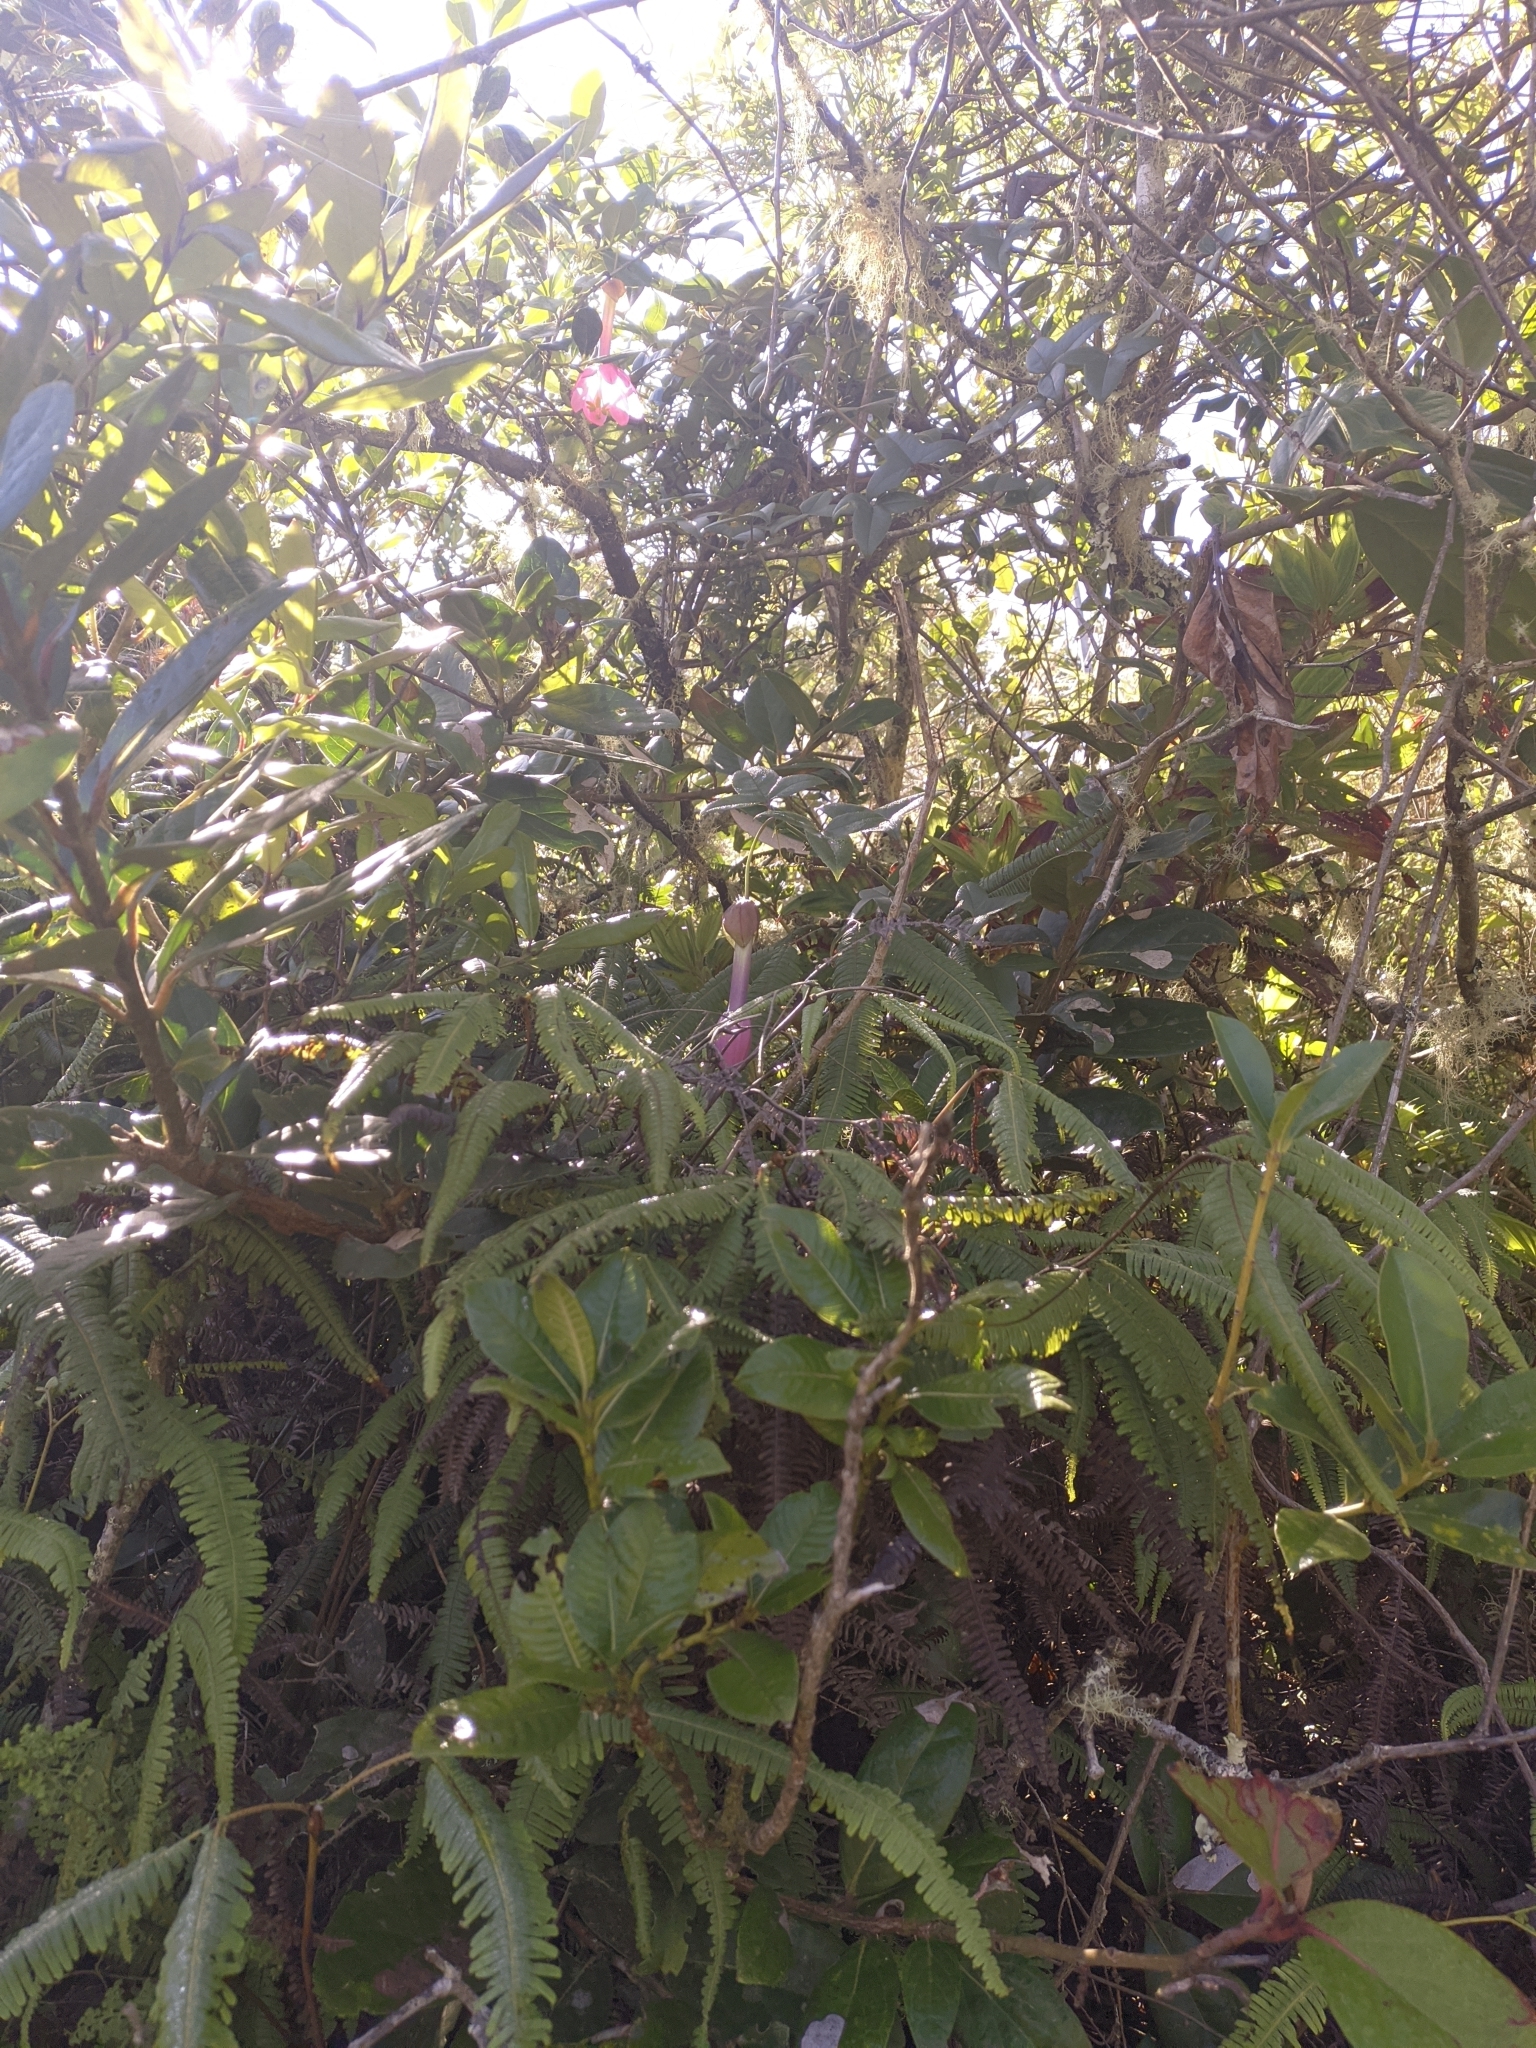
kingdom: Plantae
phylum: Tracheophyta
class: Magnoliopsida
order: Malpighiales
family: Passifloraceae
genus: Passiflora
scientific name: Passiflora cumbalensis
